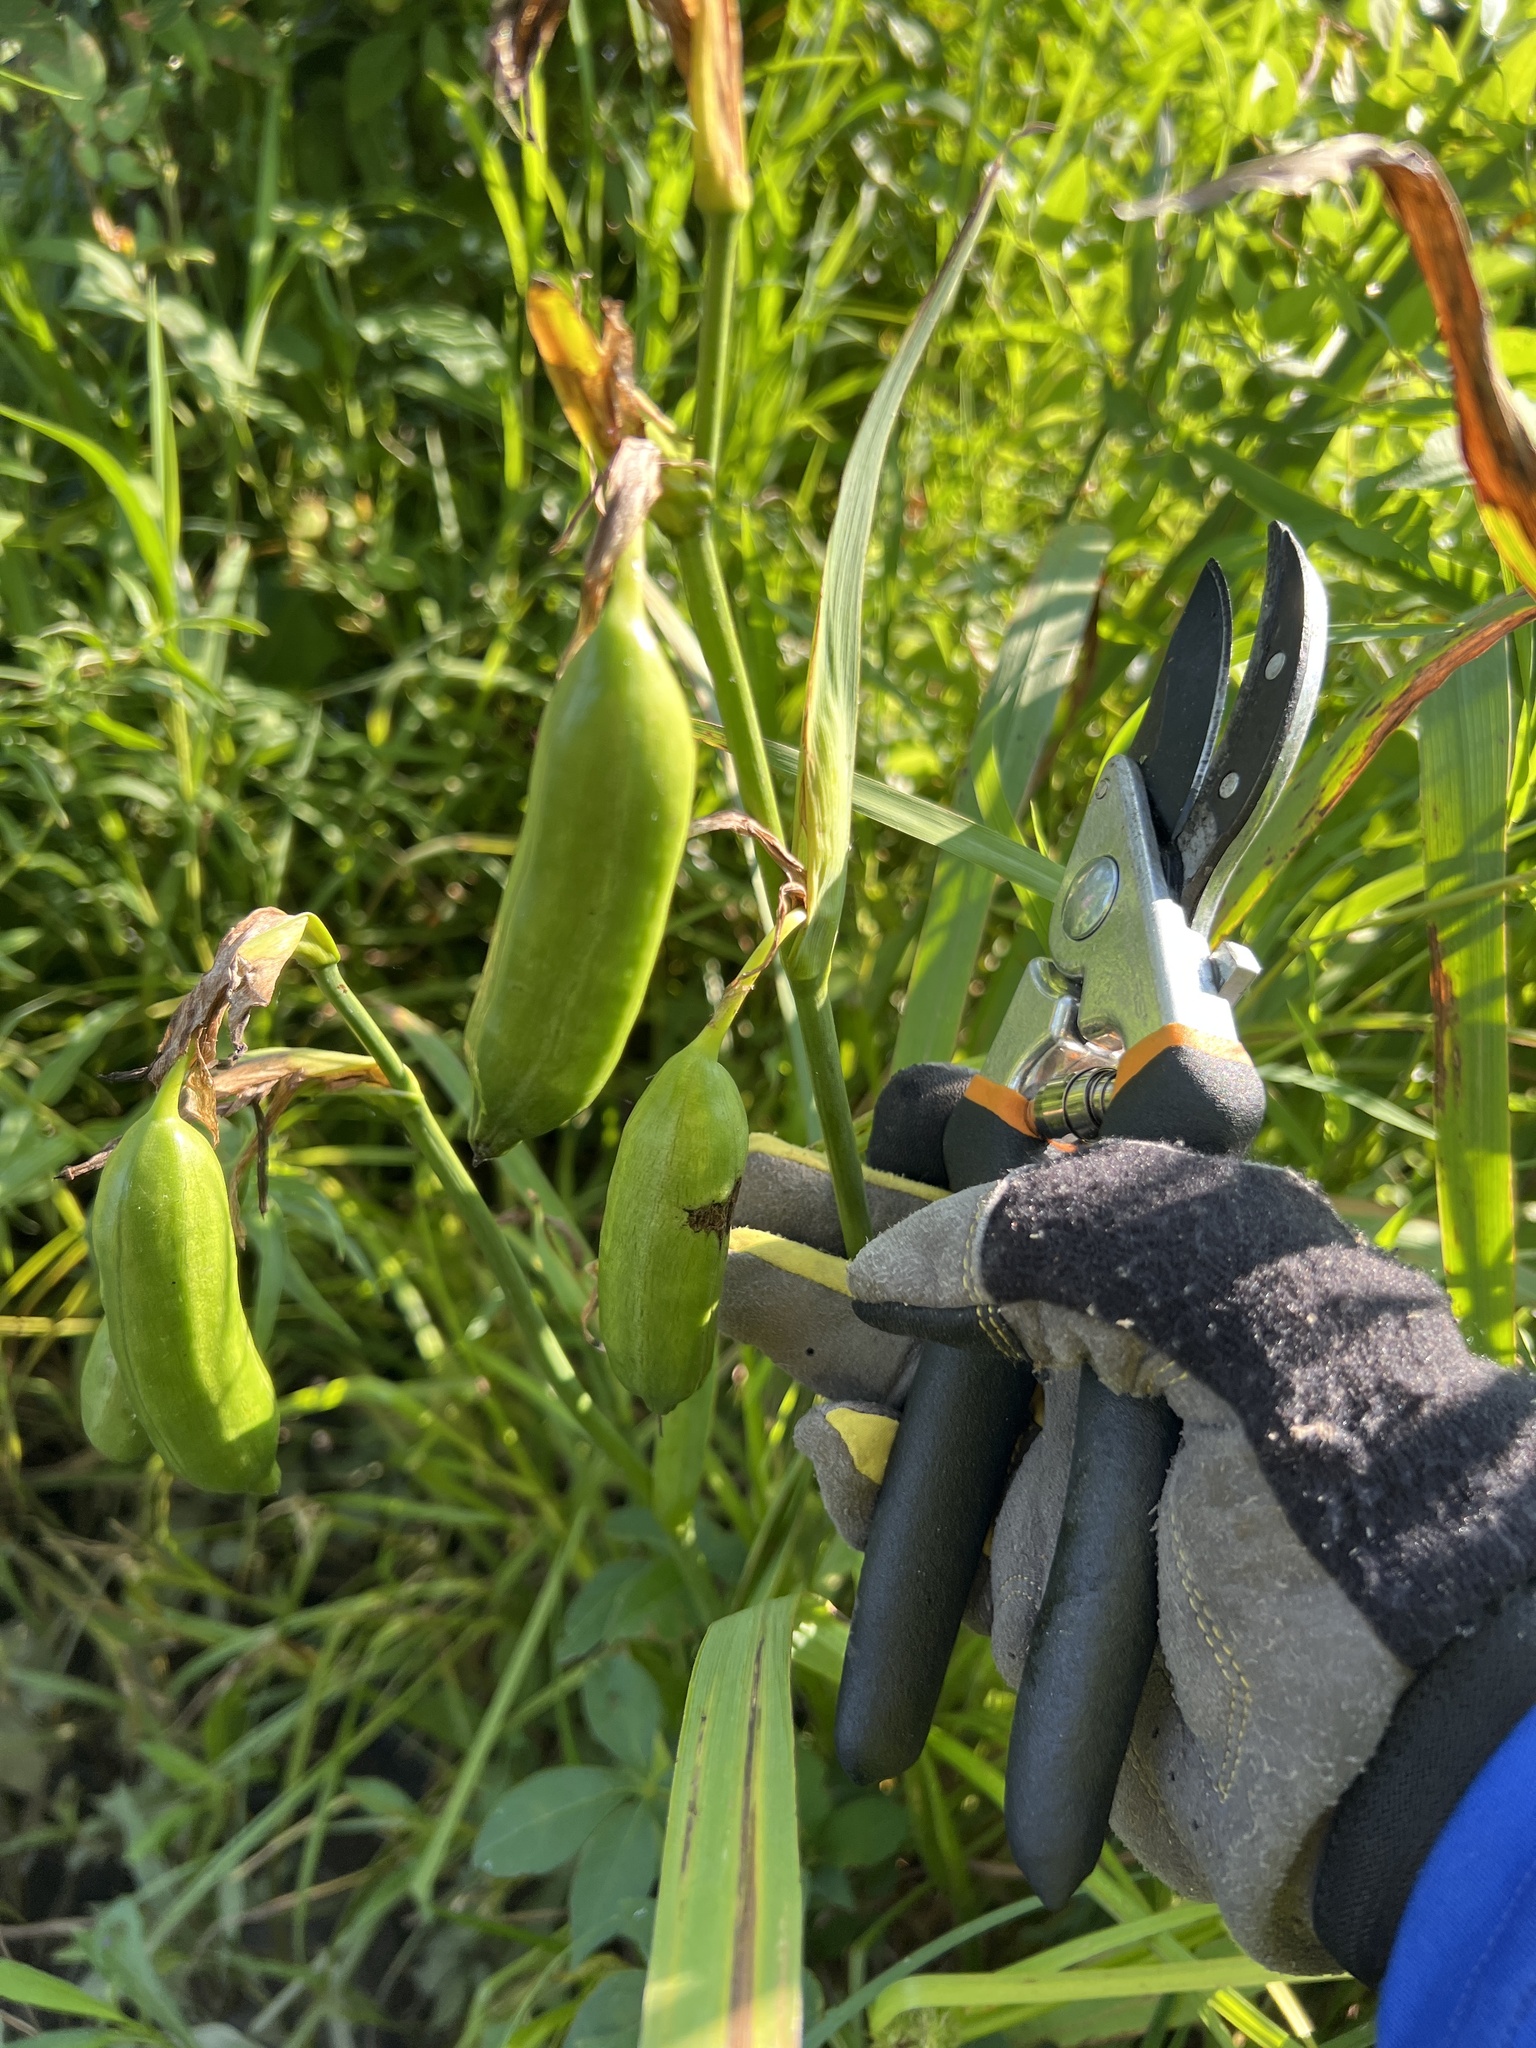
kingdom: Plantae
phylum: Tracheophyta
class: Liliopsida
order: Asparagales
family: Iridaceae
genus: Iris
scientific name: Iris pseudacorus
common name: Yellow flag
